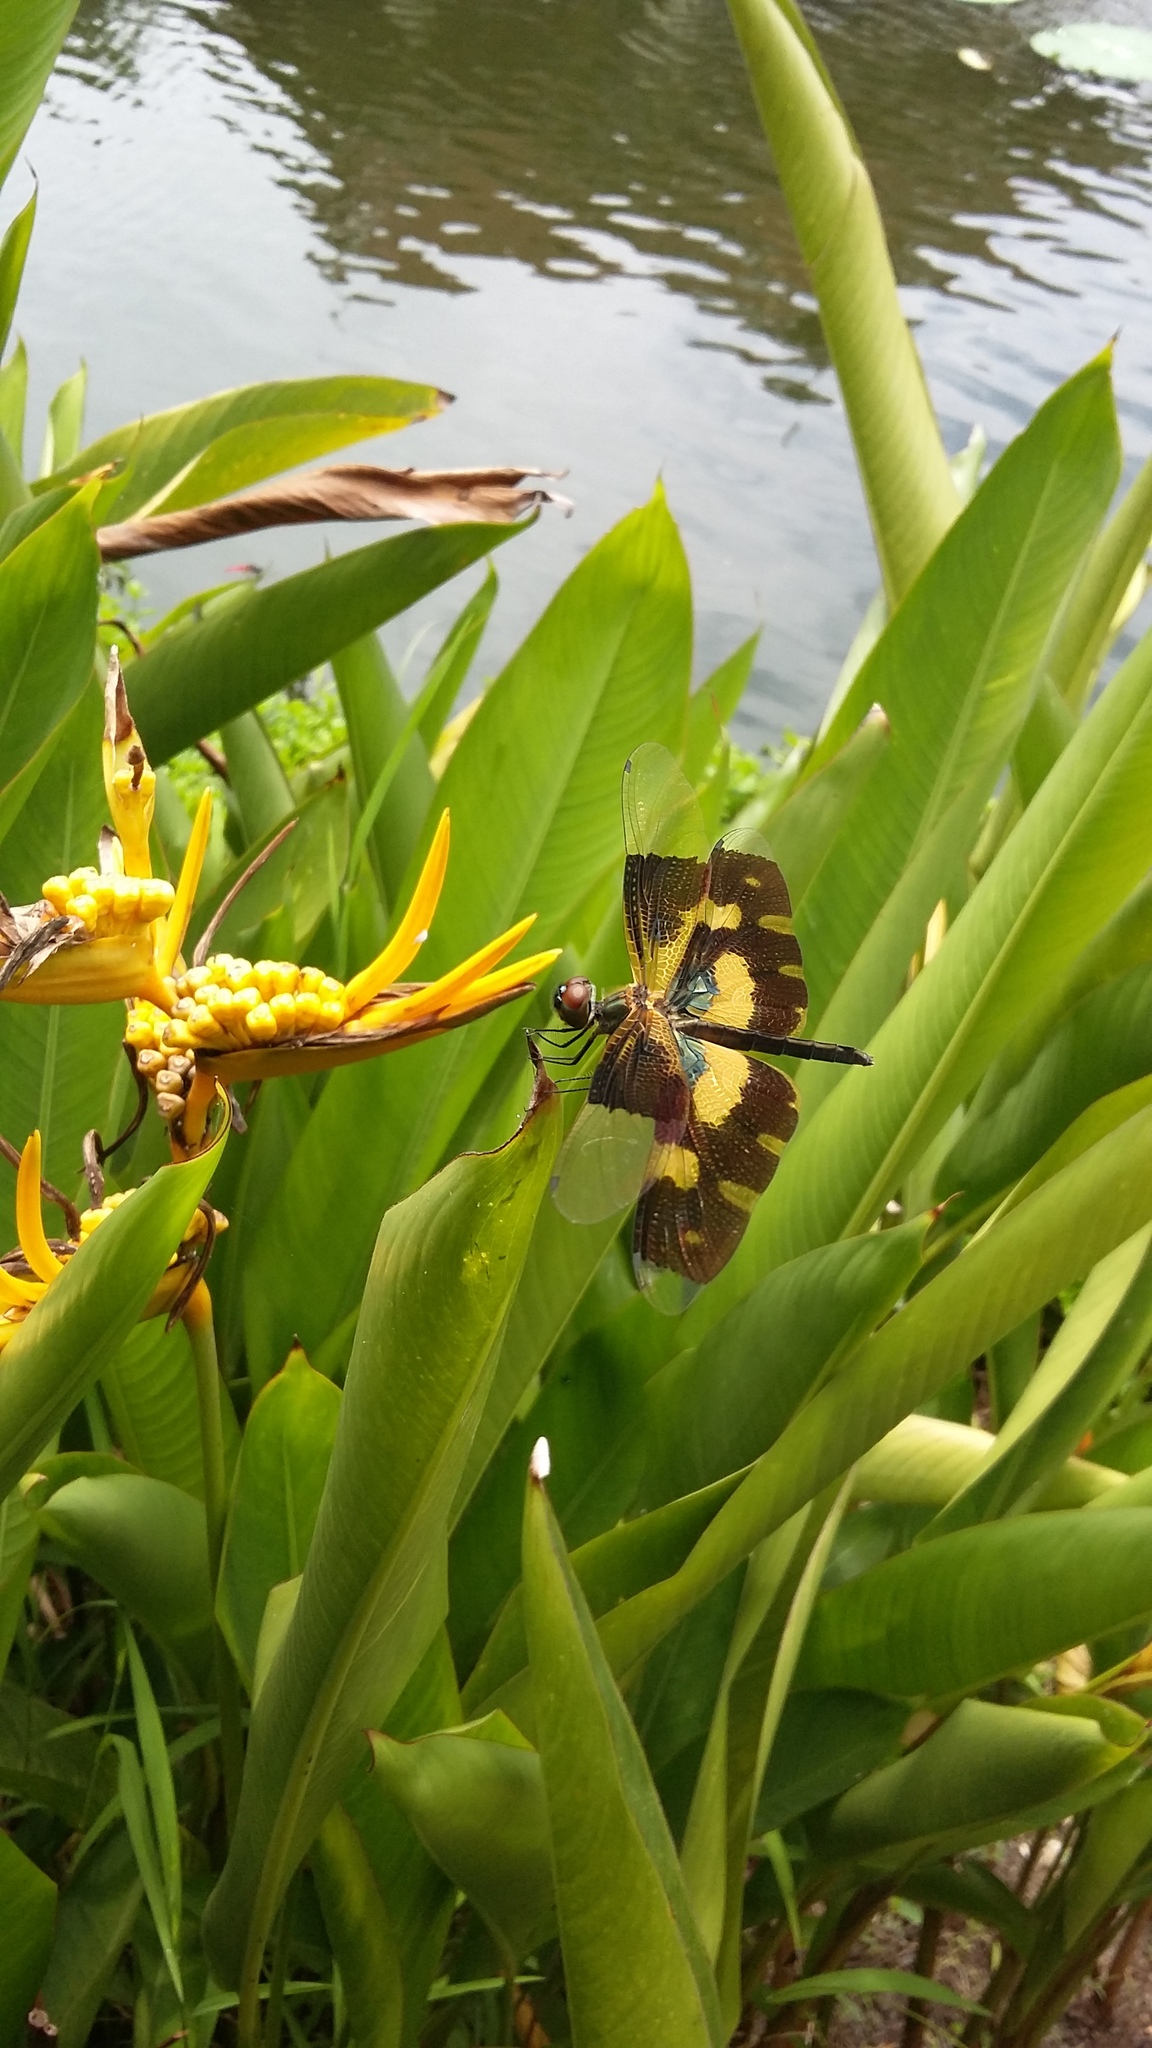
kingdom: Animalia
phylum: Arthropoda
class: Insecta
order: Odonata
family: Libellulidae
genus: Rhyothemis
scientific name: Rhyothemis variegata
